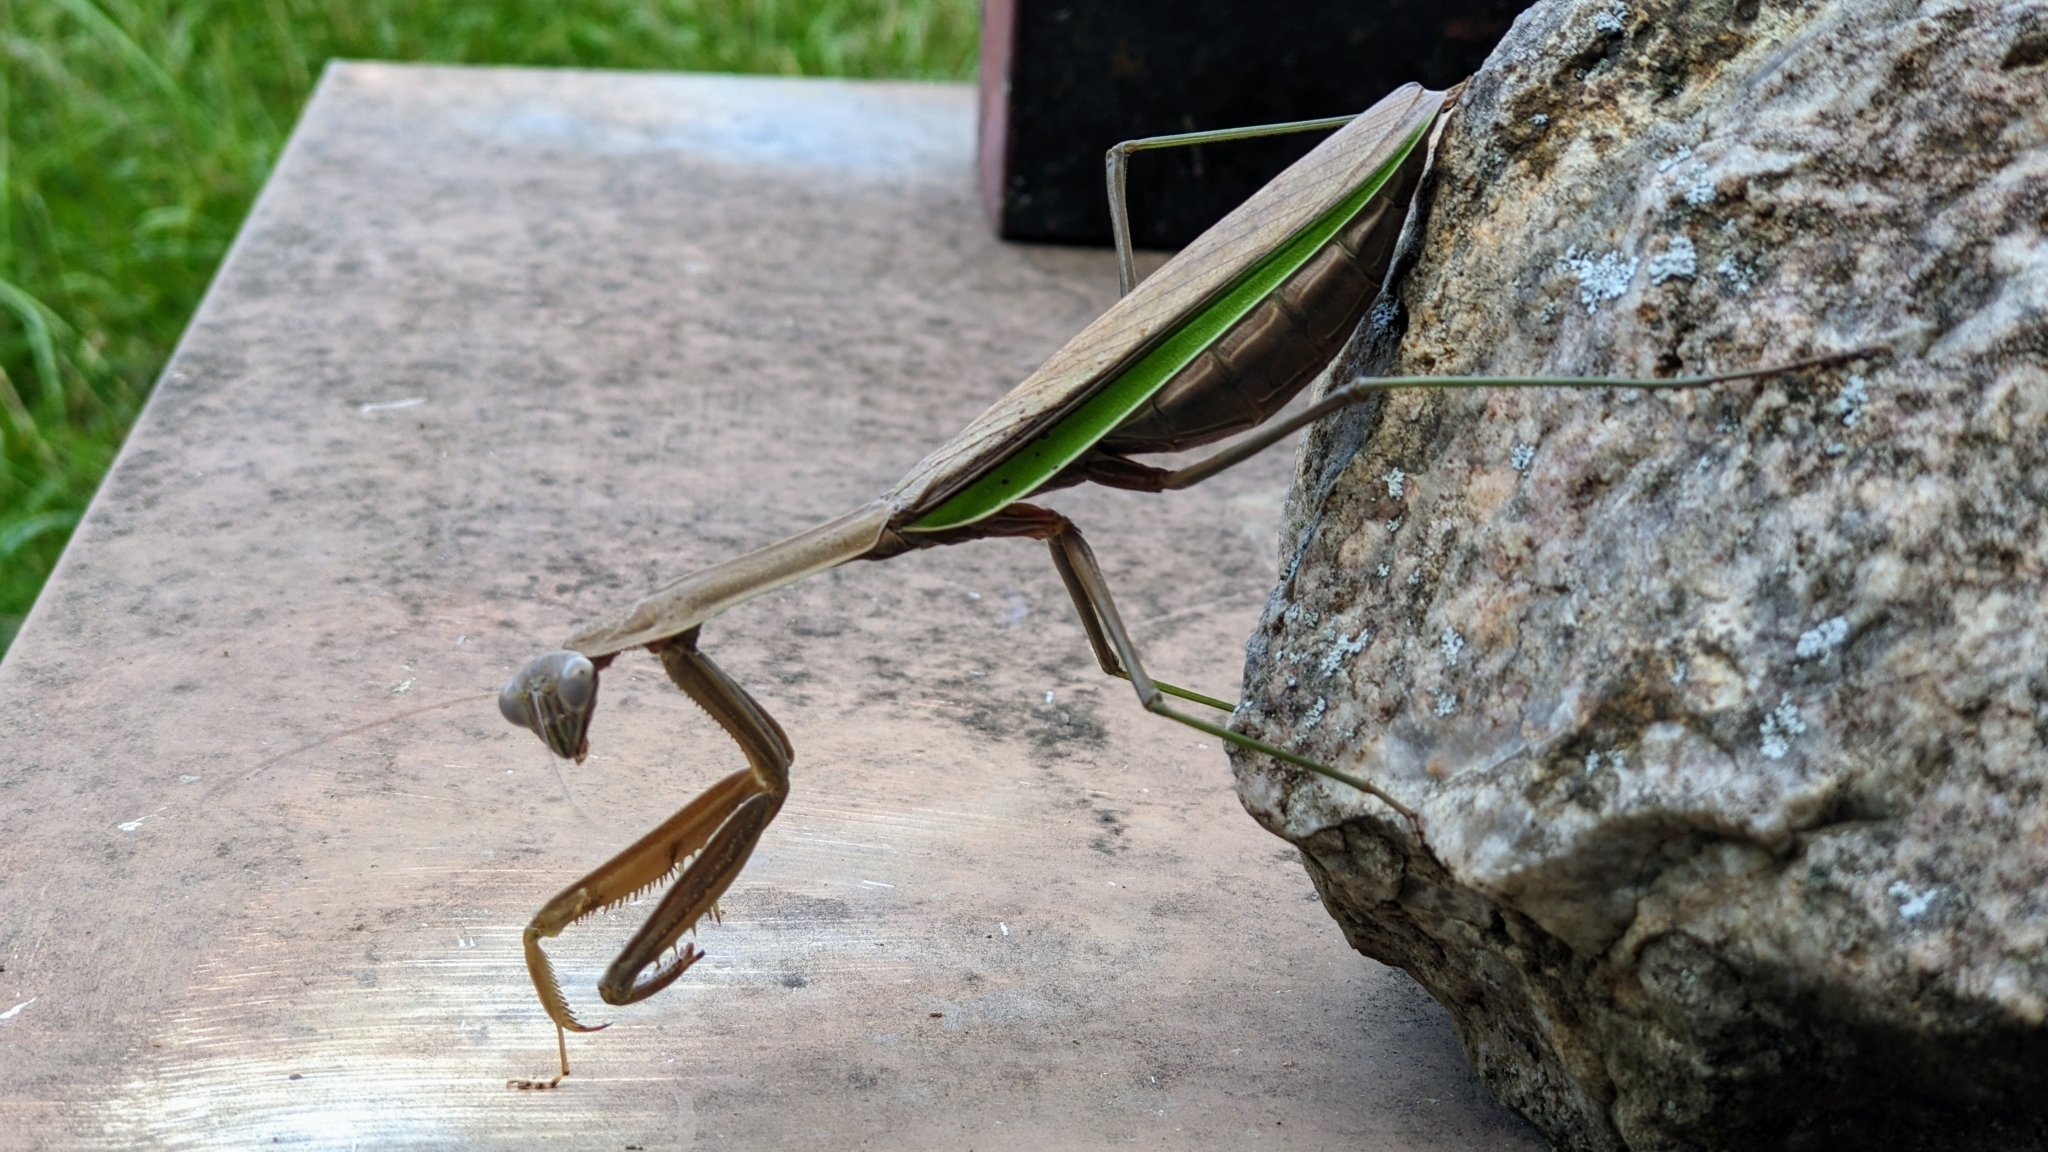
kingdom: Animalia
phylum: Arthropoda
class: Insecta
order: Mantodea
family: Mantidae
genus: Tenodera
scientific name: Tenodera sinensis
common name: Chinese mantis
